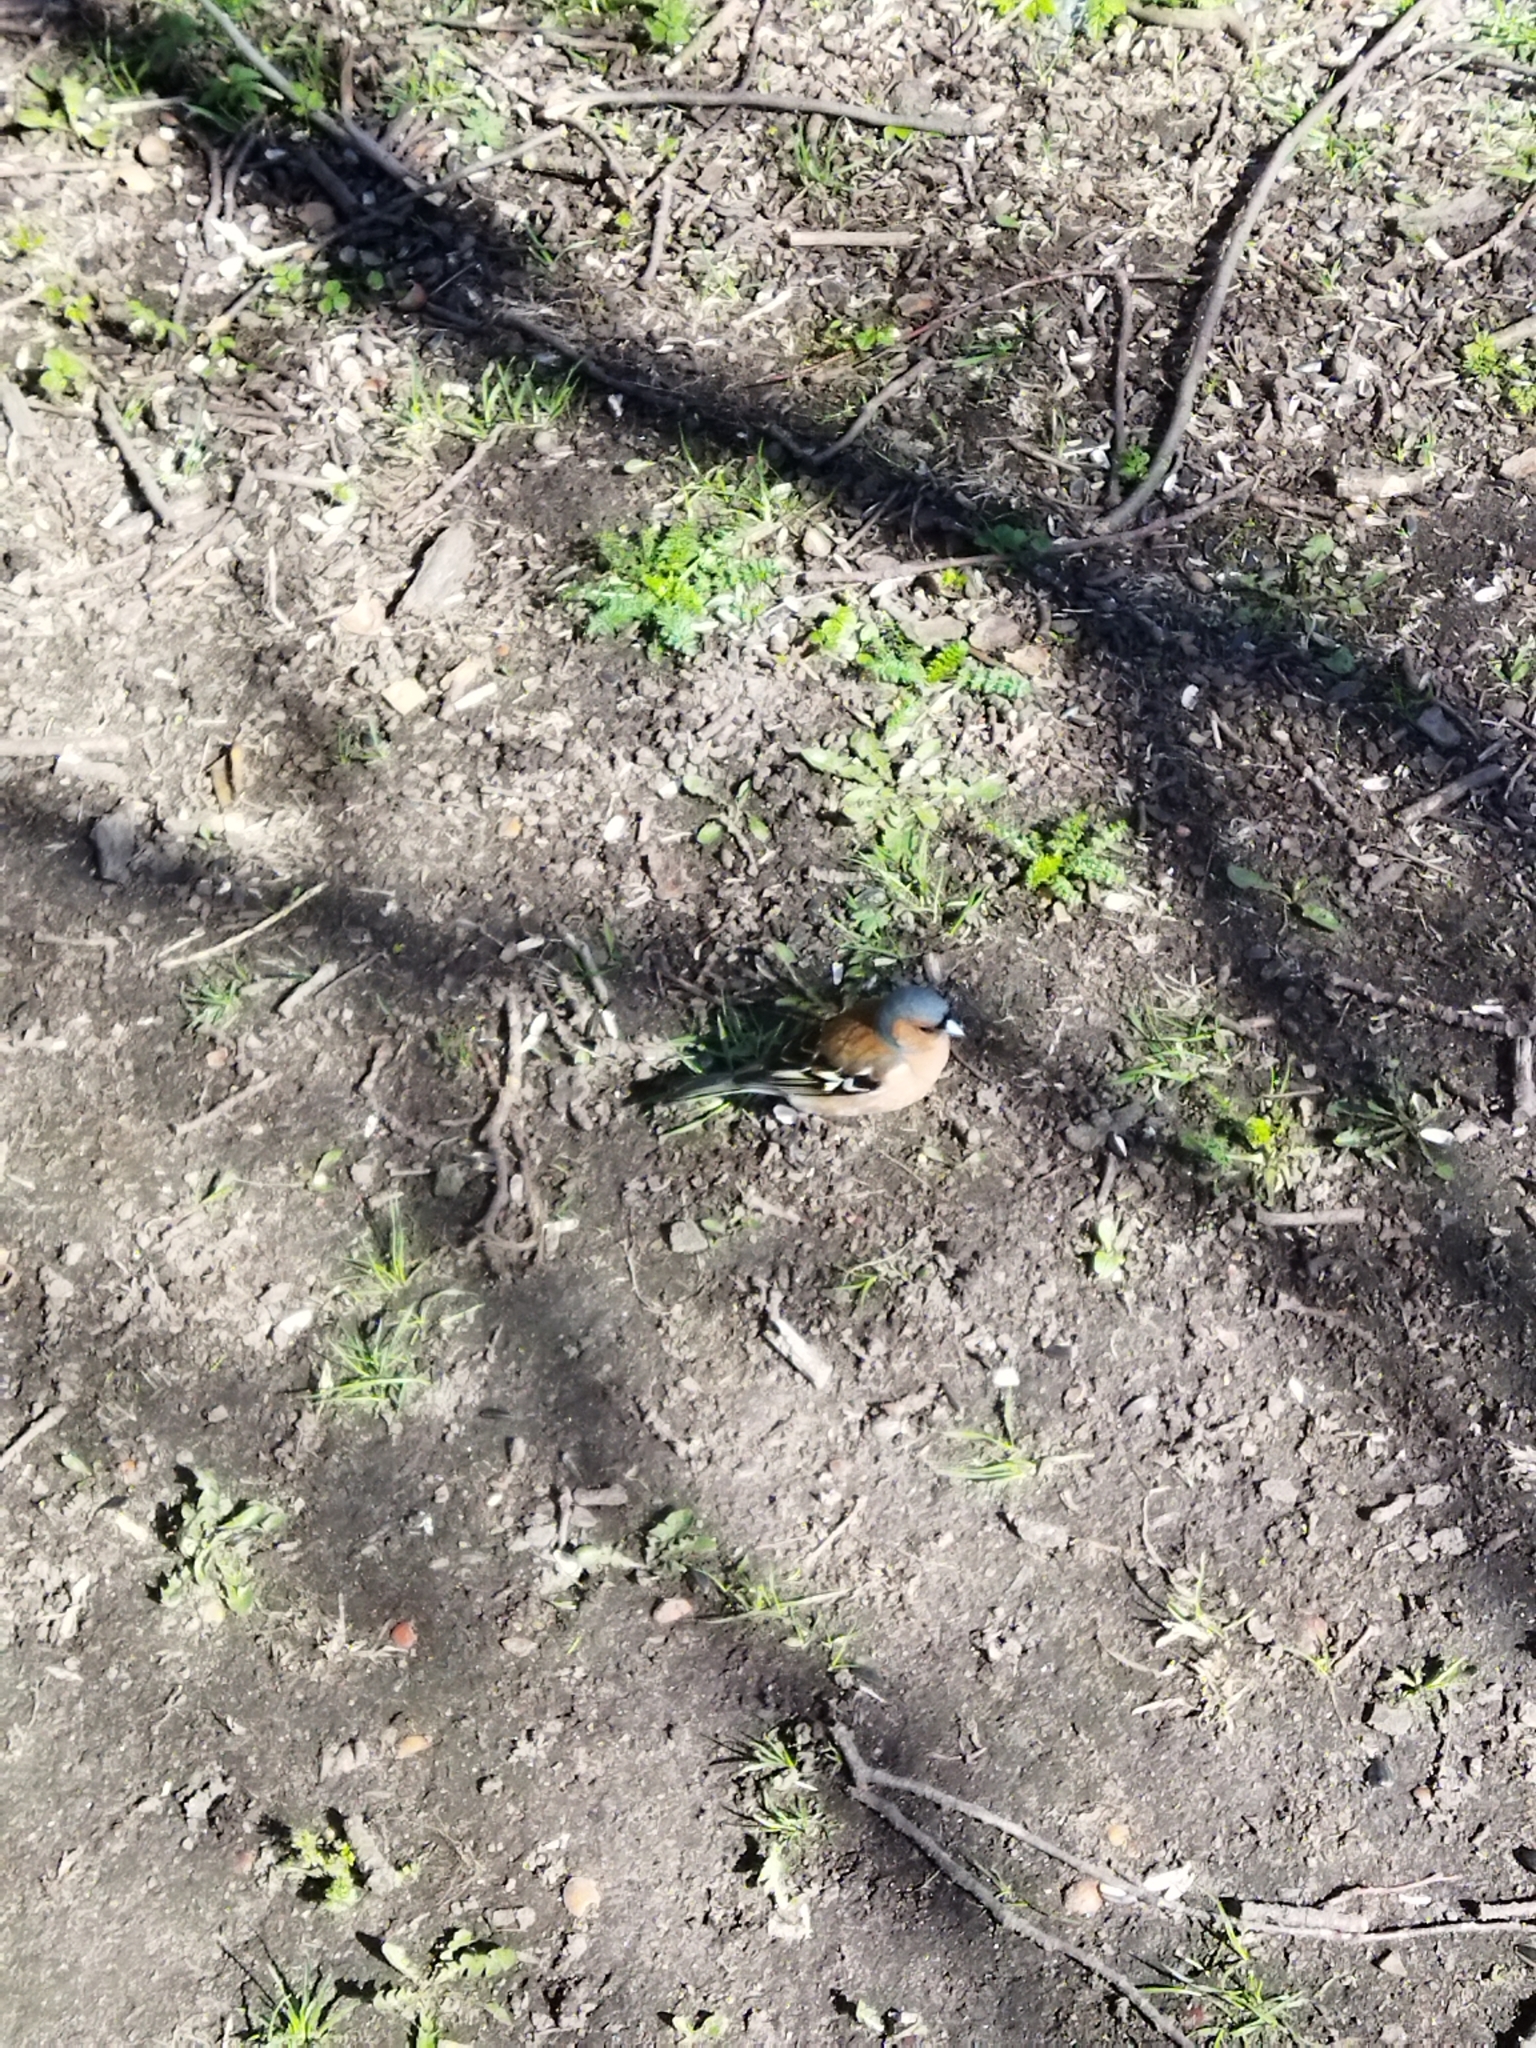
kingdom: Animalia
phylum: Chordata
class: Aves
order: Passeriformes
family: Fringillidae
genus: Fringilla
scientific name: Fringilla coelebs
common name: Common chaffinch
